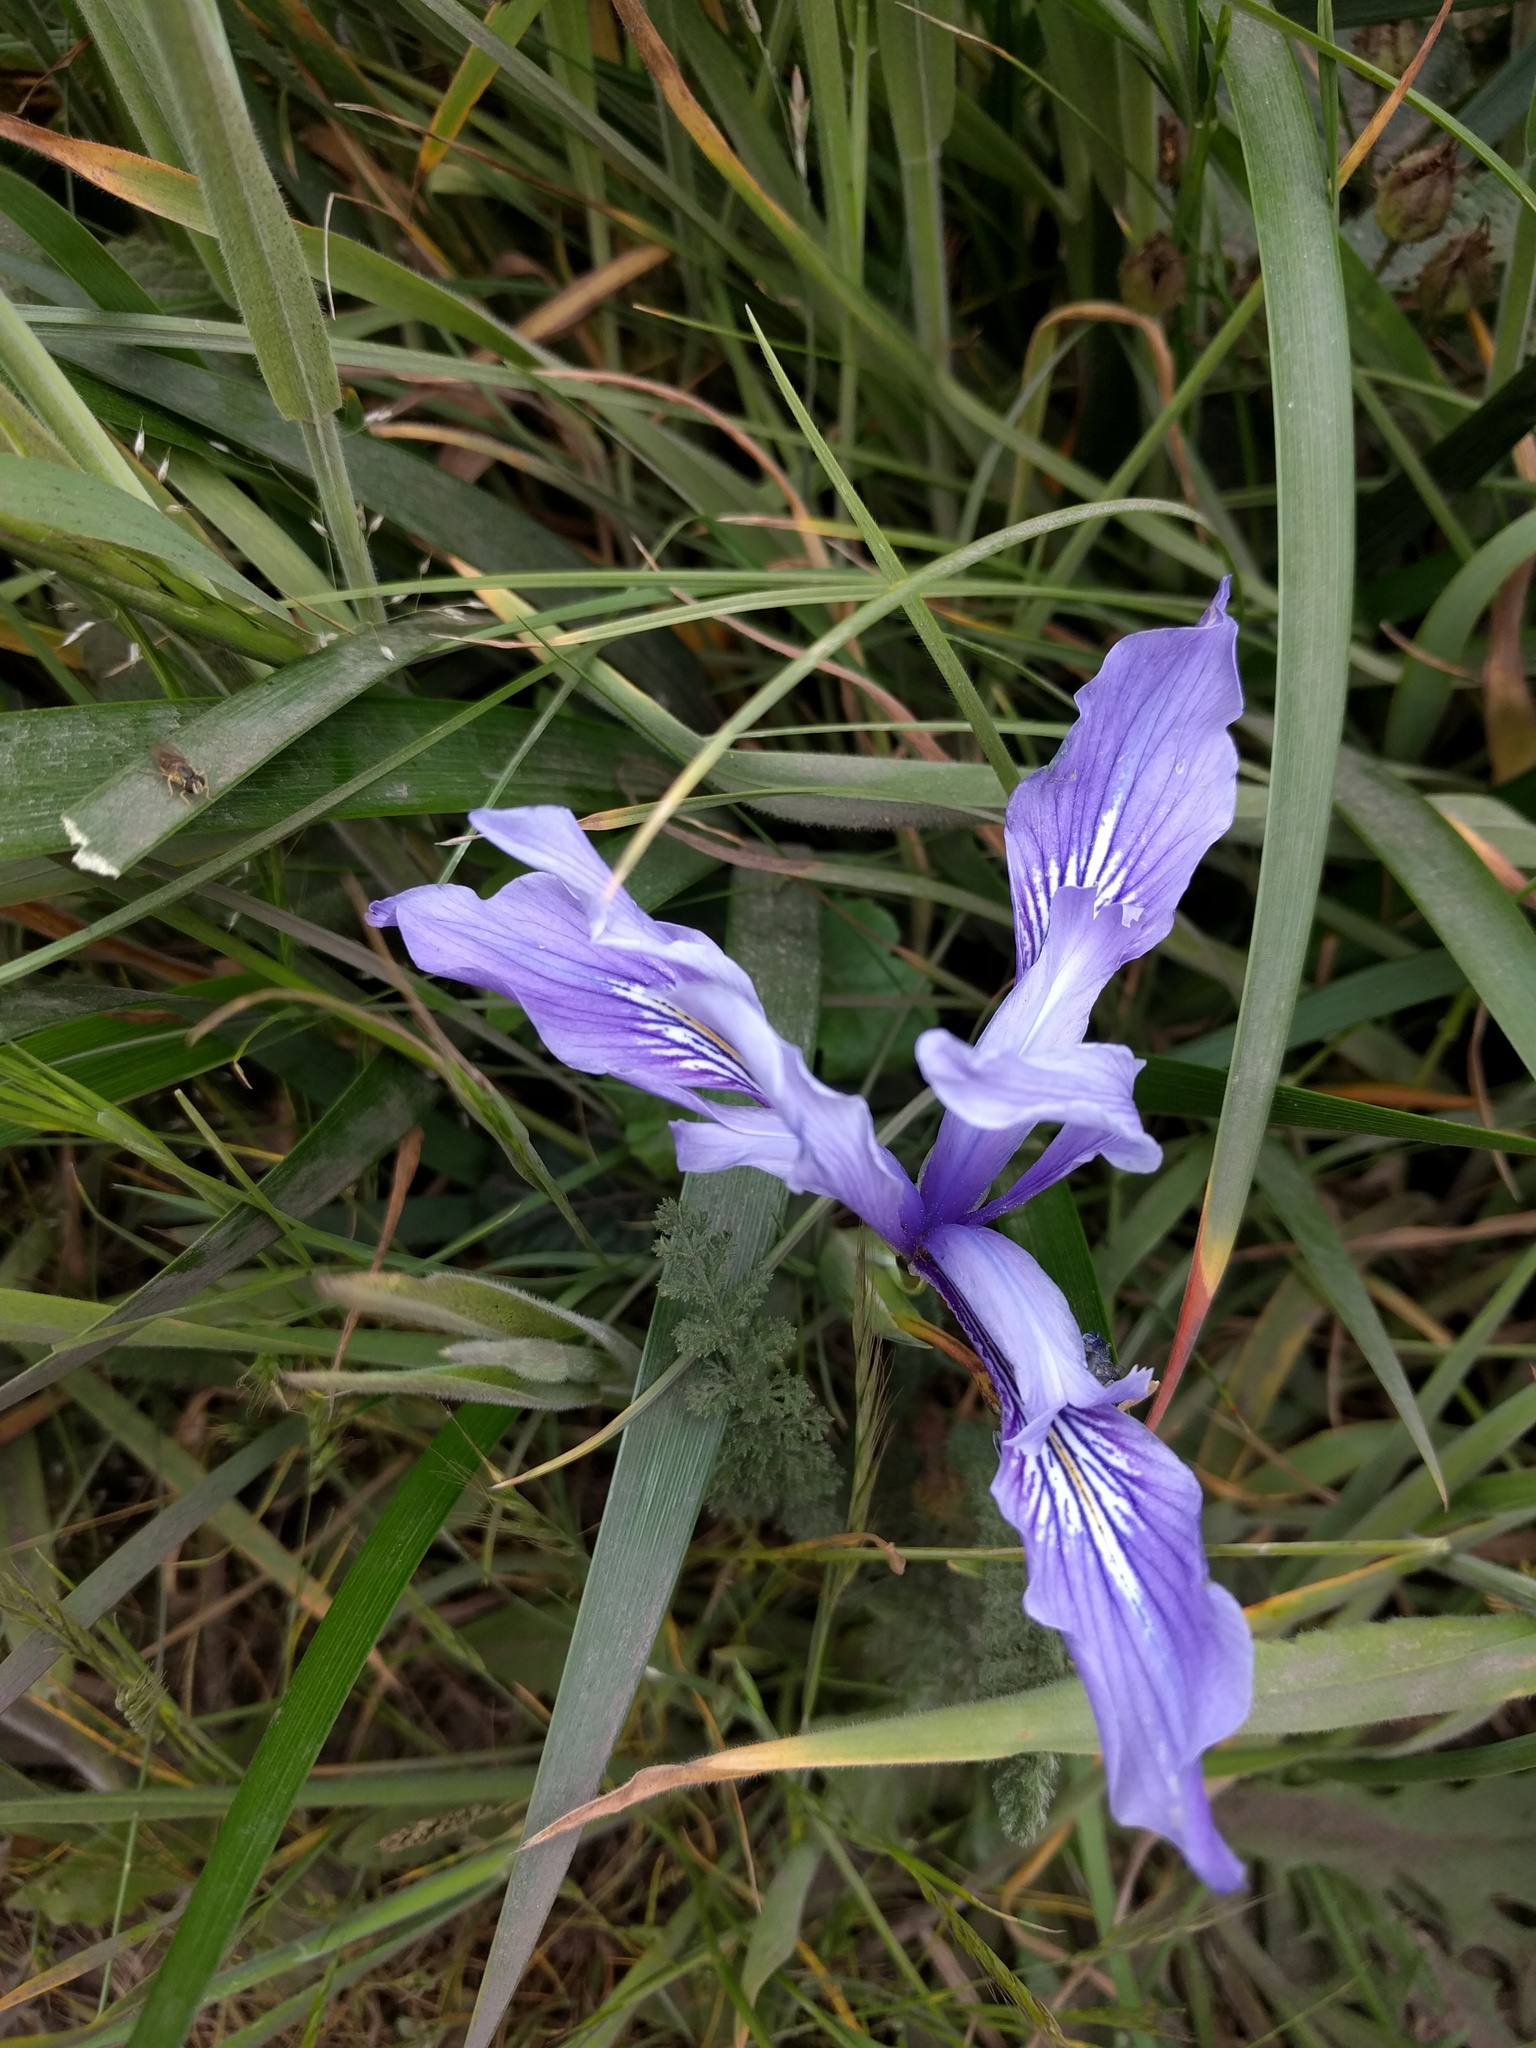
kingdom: Plantae
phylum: Tracheophyta
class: Liliopsida
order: Asparagales
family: Iridaceae
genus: Iris
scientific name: Iris douglasiana
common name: Marin iris
